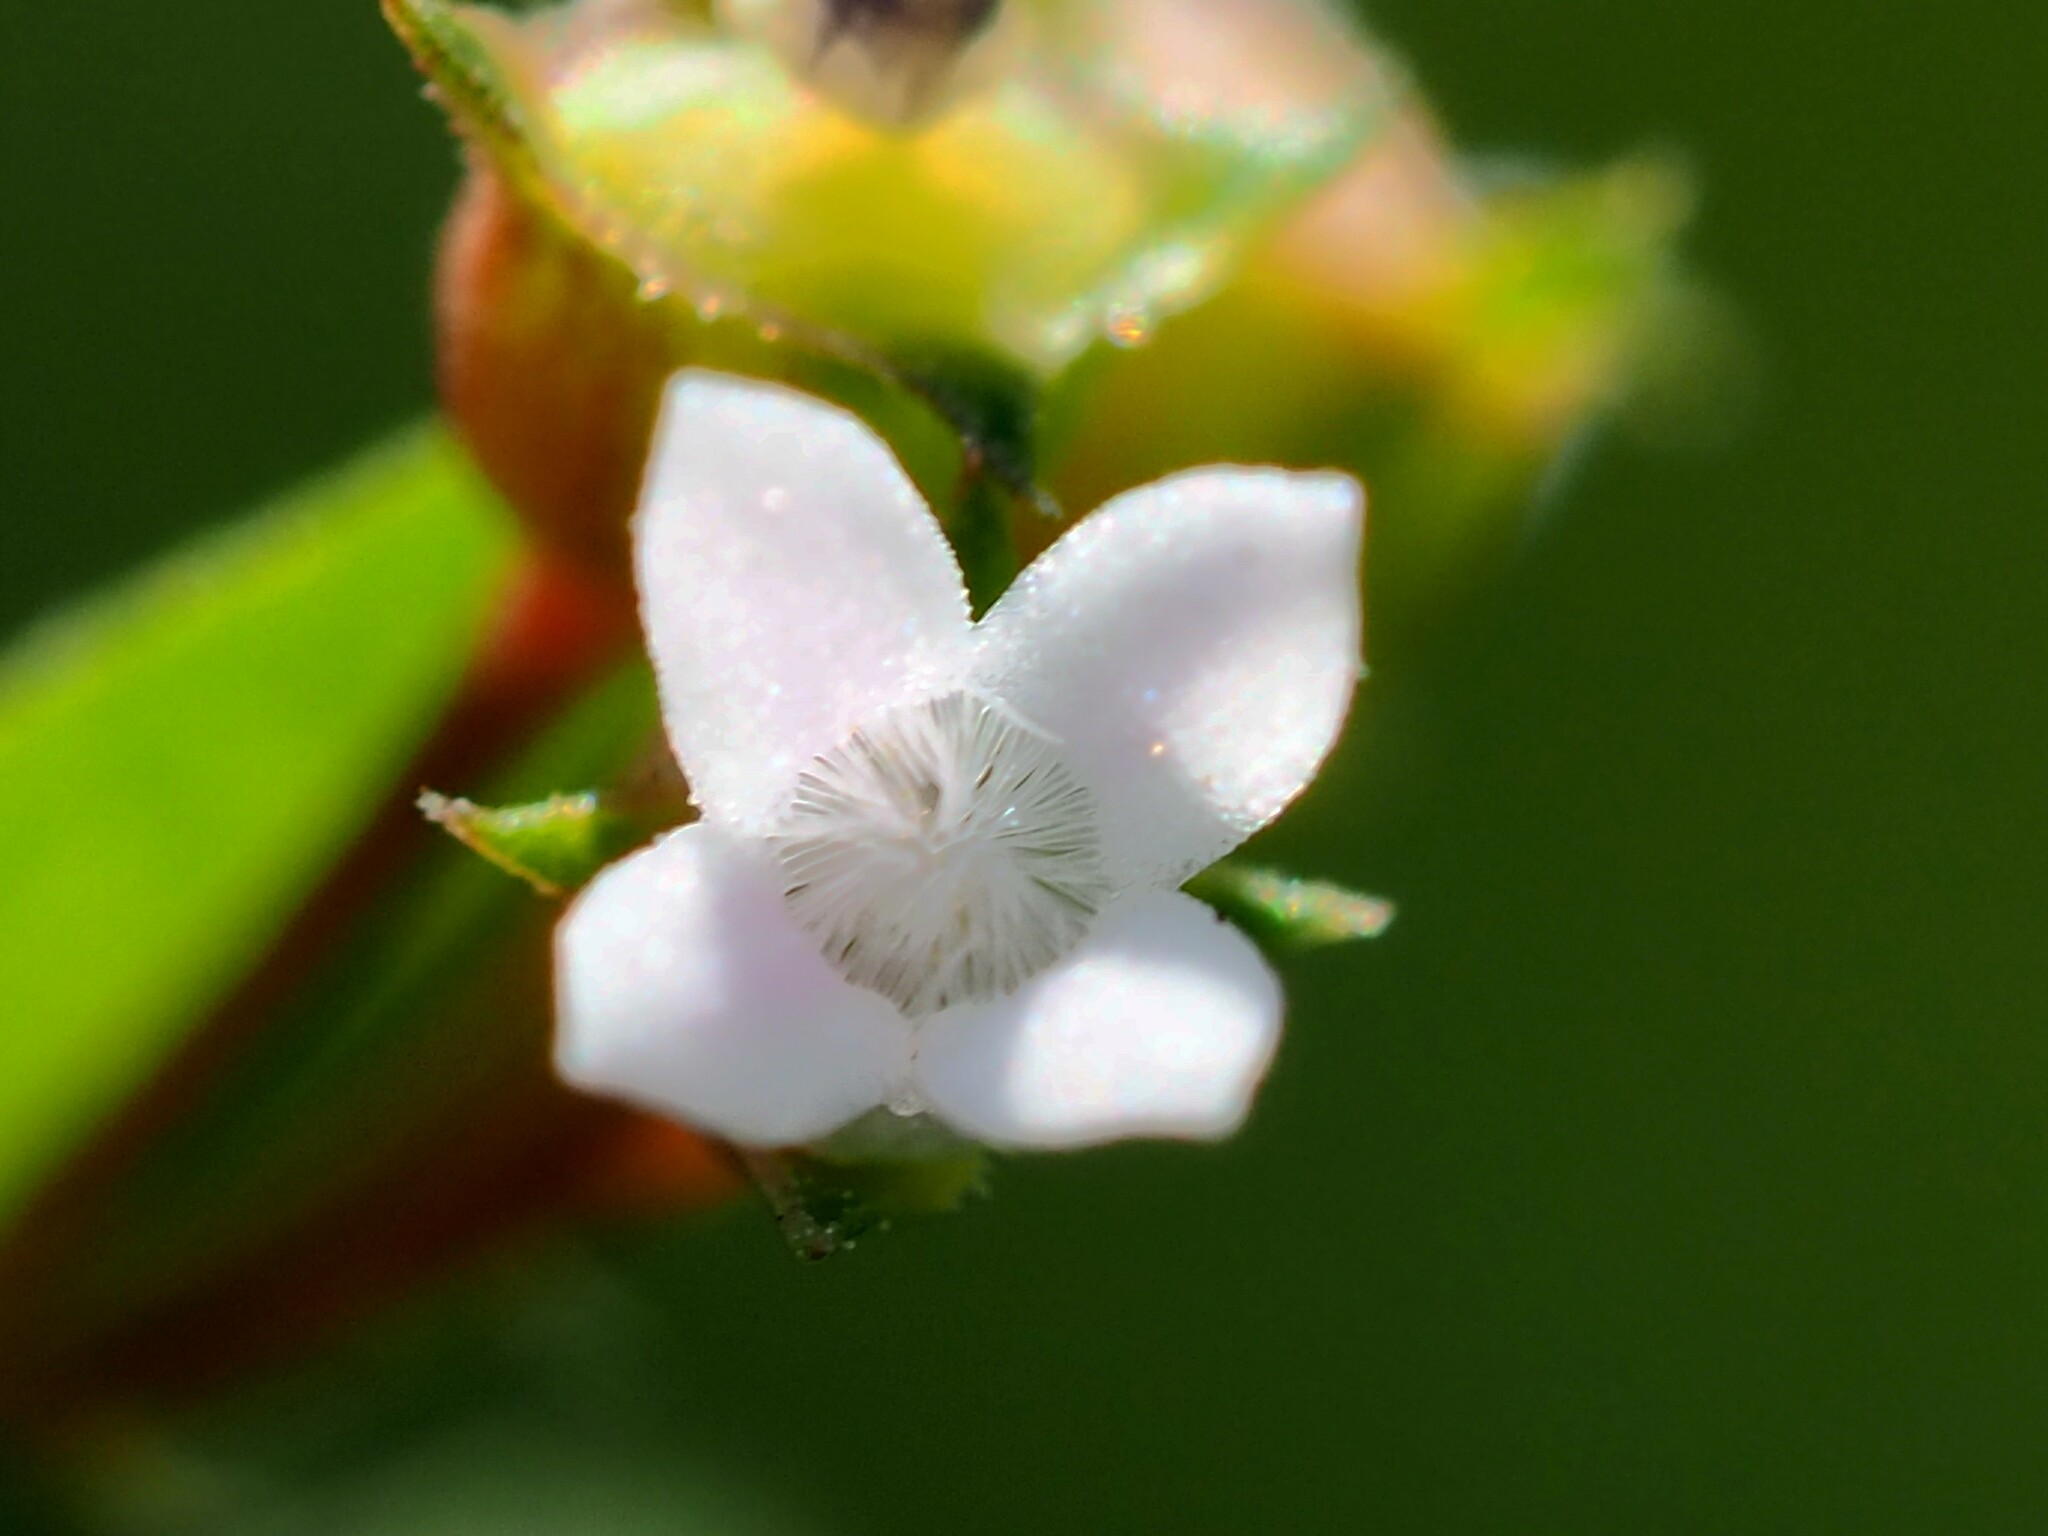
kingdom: Plantae
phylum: Tracheophyta
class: Magnoliopsida
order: Gentianales
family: Rubiaceae
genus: Oldenlandia
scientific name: Oldenlandia corymbosa
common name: Flat-top mille graines
